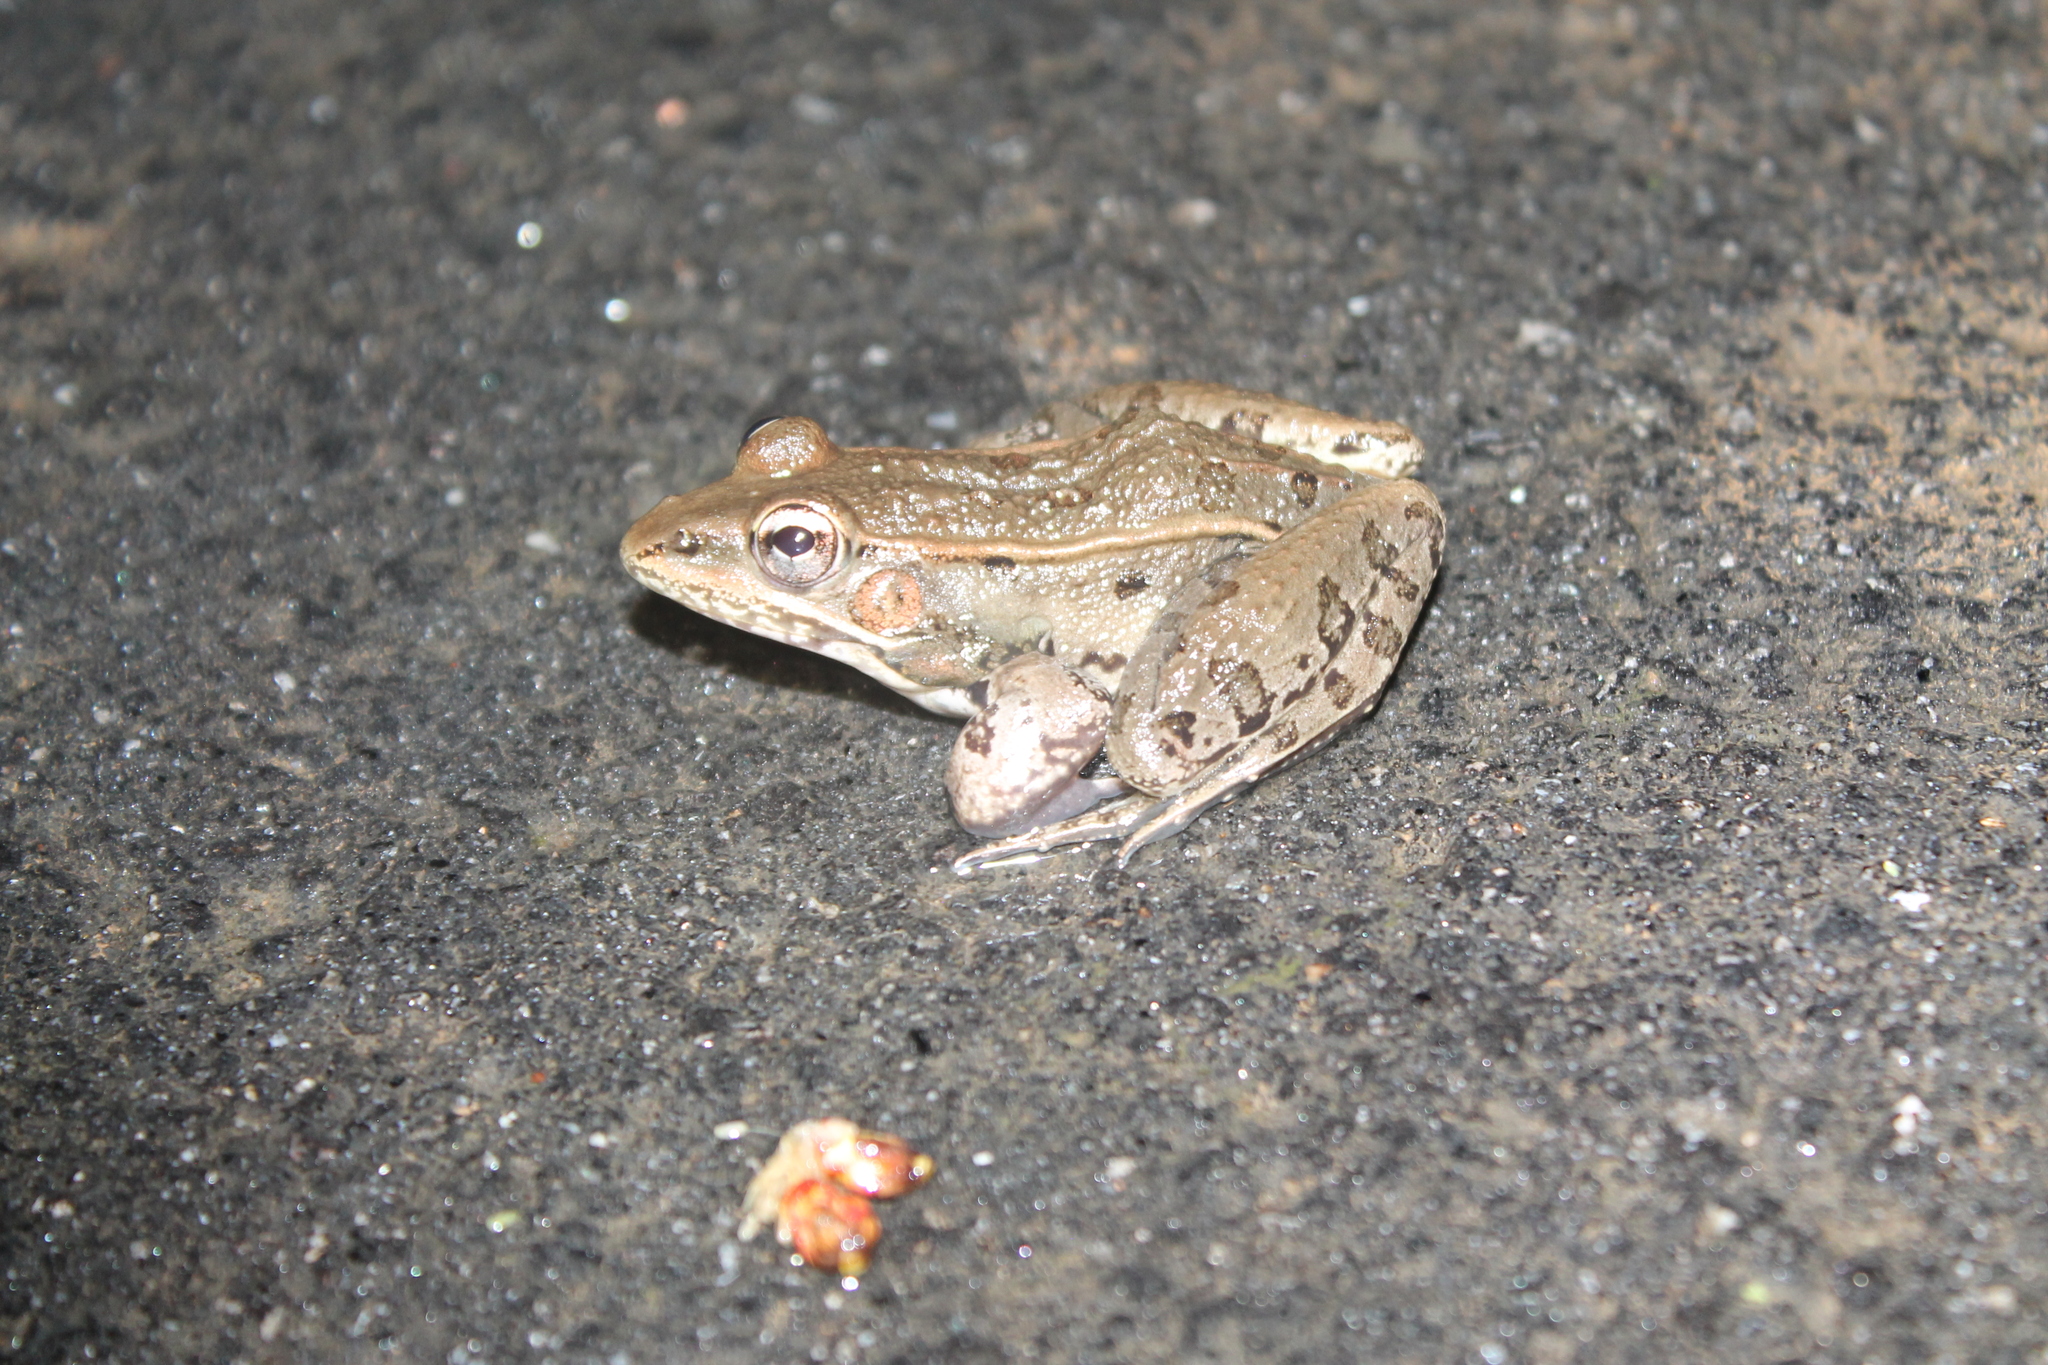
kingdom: Animalia
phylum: Chordata
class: Amphibia
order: Anura
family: Ranidae
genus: Lithobates
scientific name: Lithobates sphenocephalus
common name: Southern leopard frog
